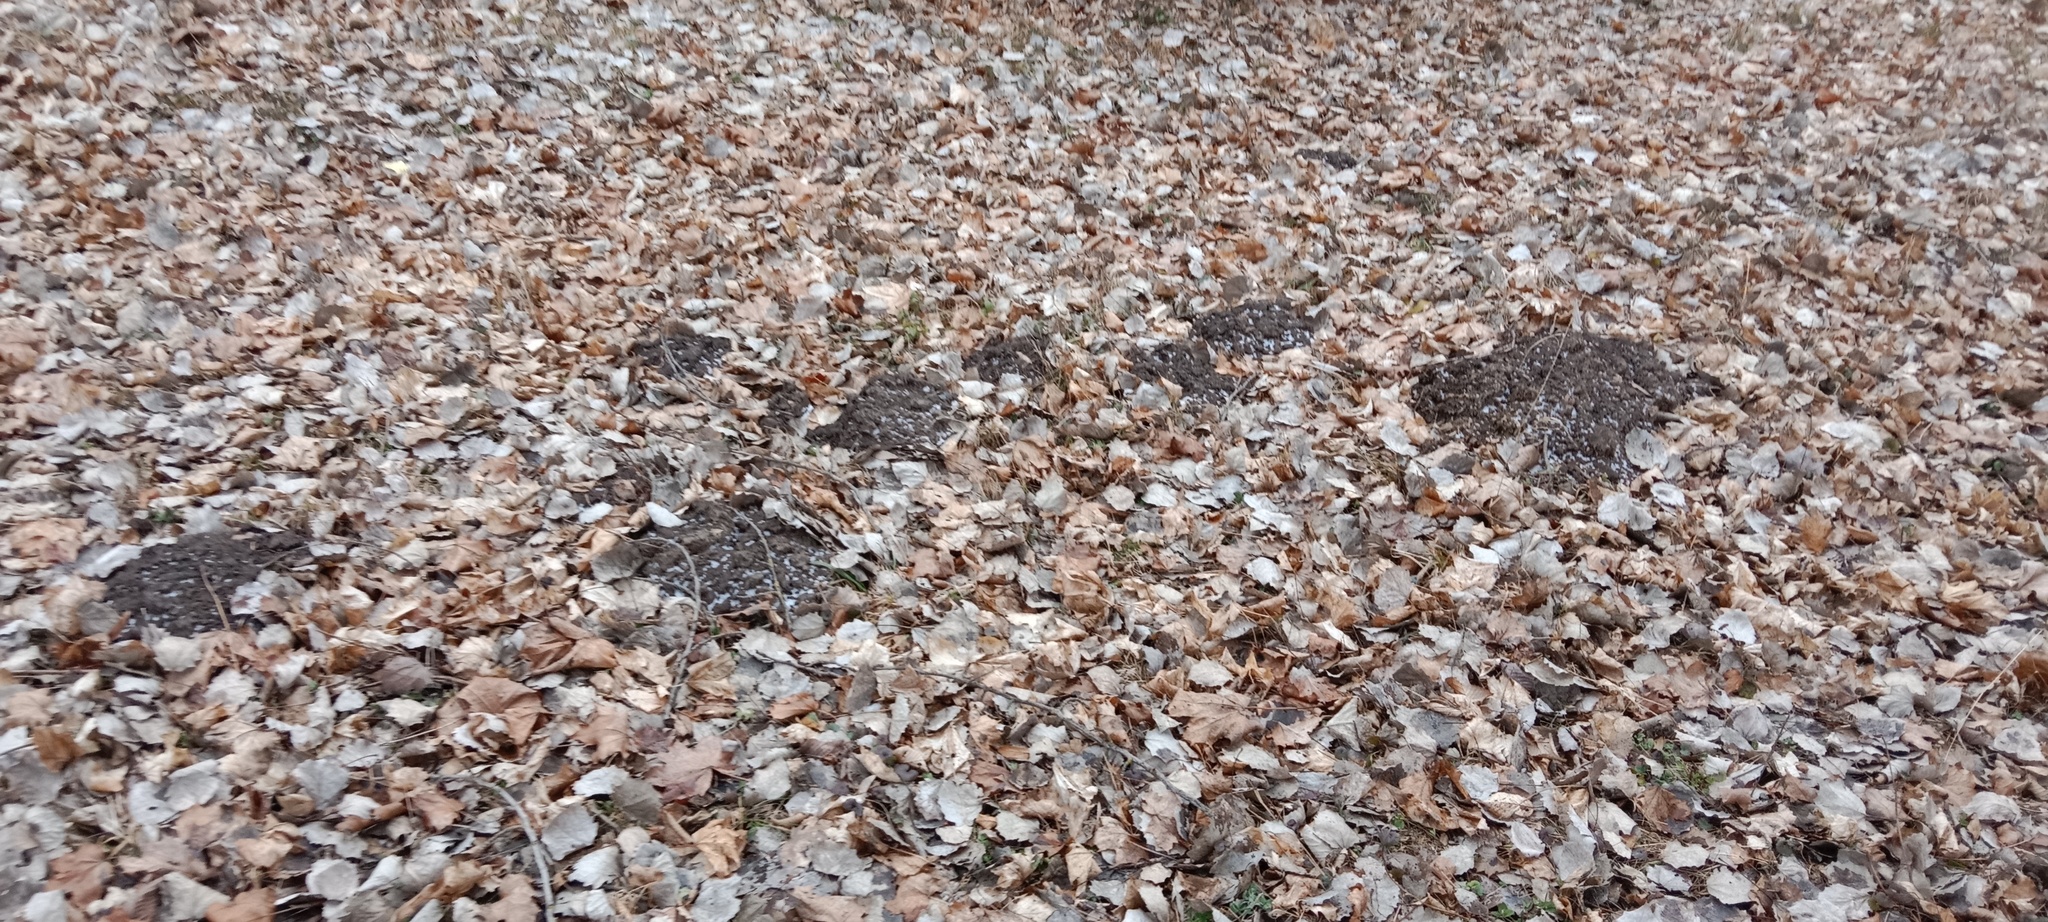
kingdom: Animalia
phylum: Chordata
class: Mammalia
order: Soricomorpha
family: Talpidae
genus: Talpa
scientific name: Talpa europaea
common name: European mole
